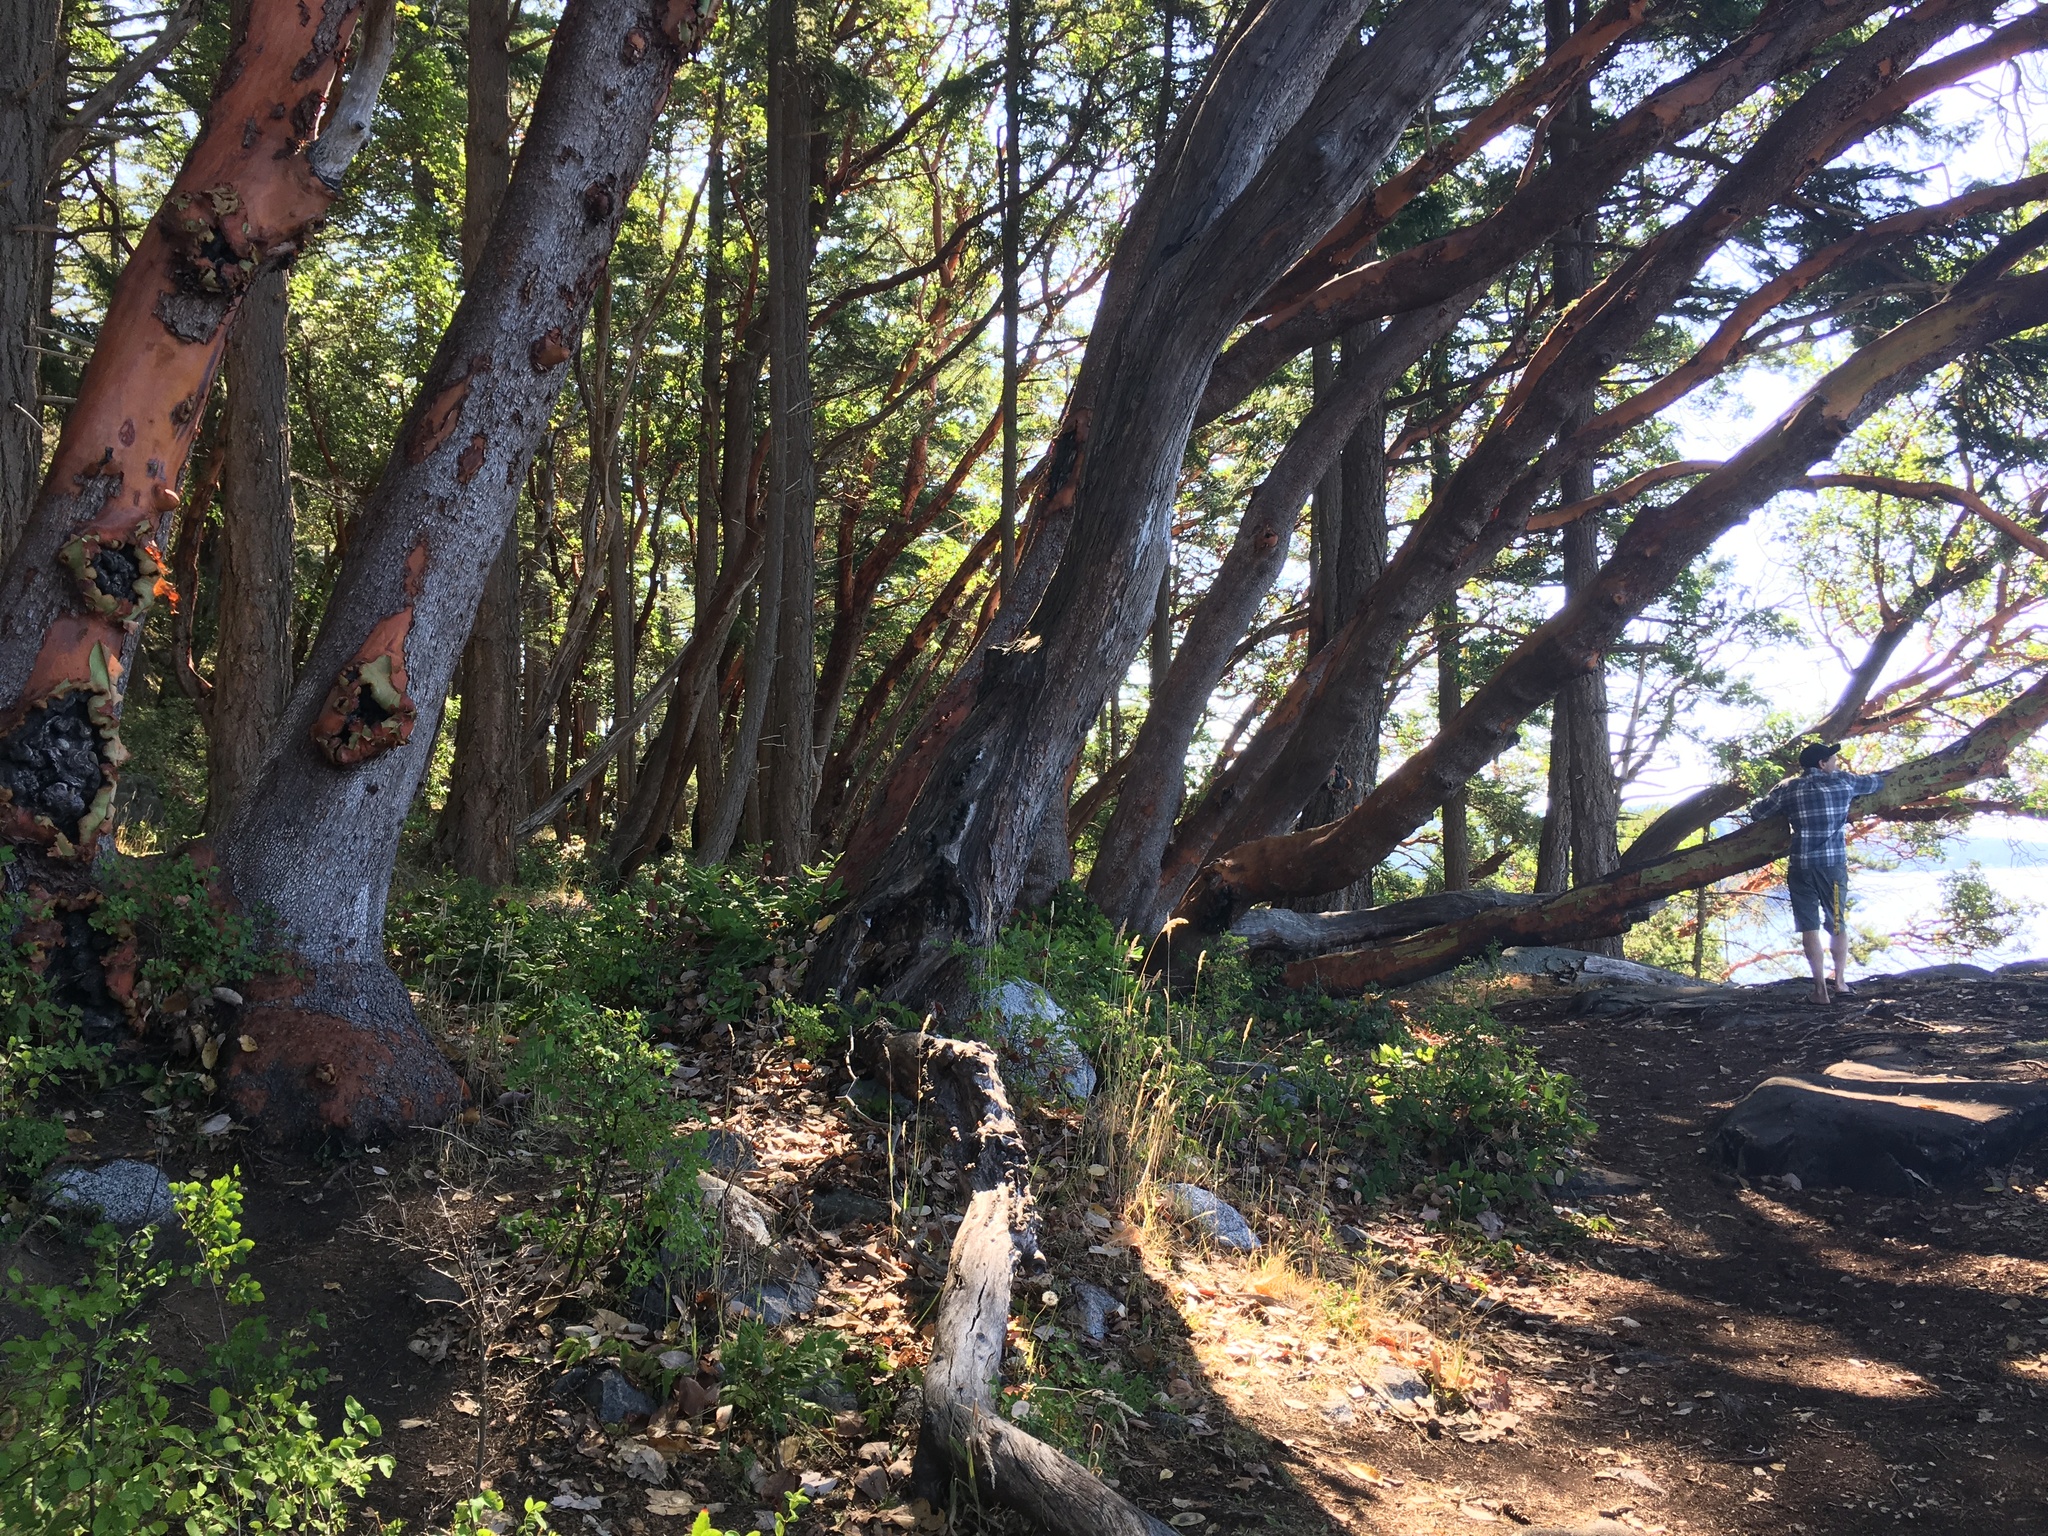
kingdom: Plantae
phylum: Tracheophyta
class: Magnoliopsida
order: Ericales
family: Ericaceae
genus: Arbutus
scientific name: Arbutus menziesii
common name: Pacific madrone
